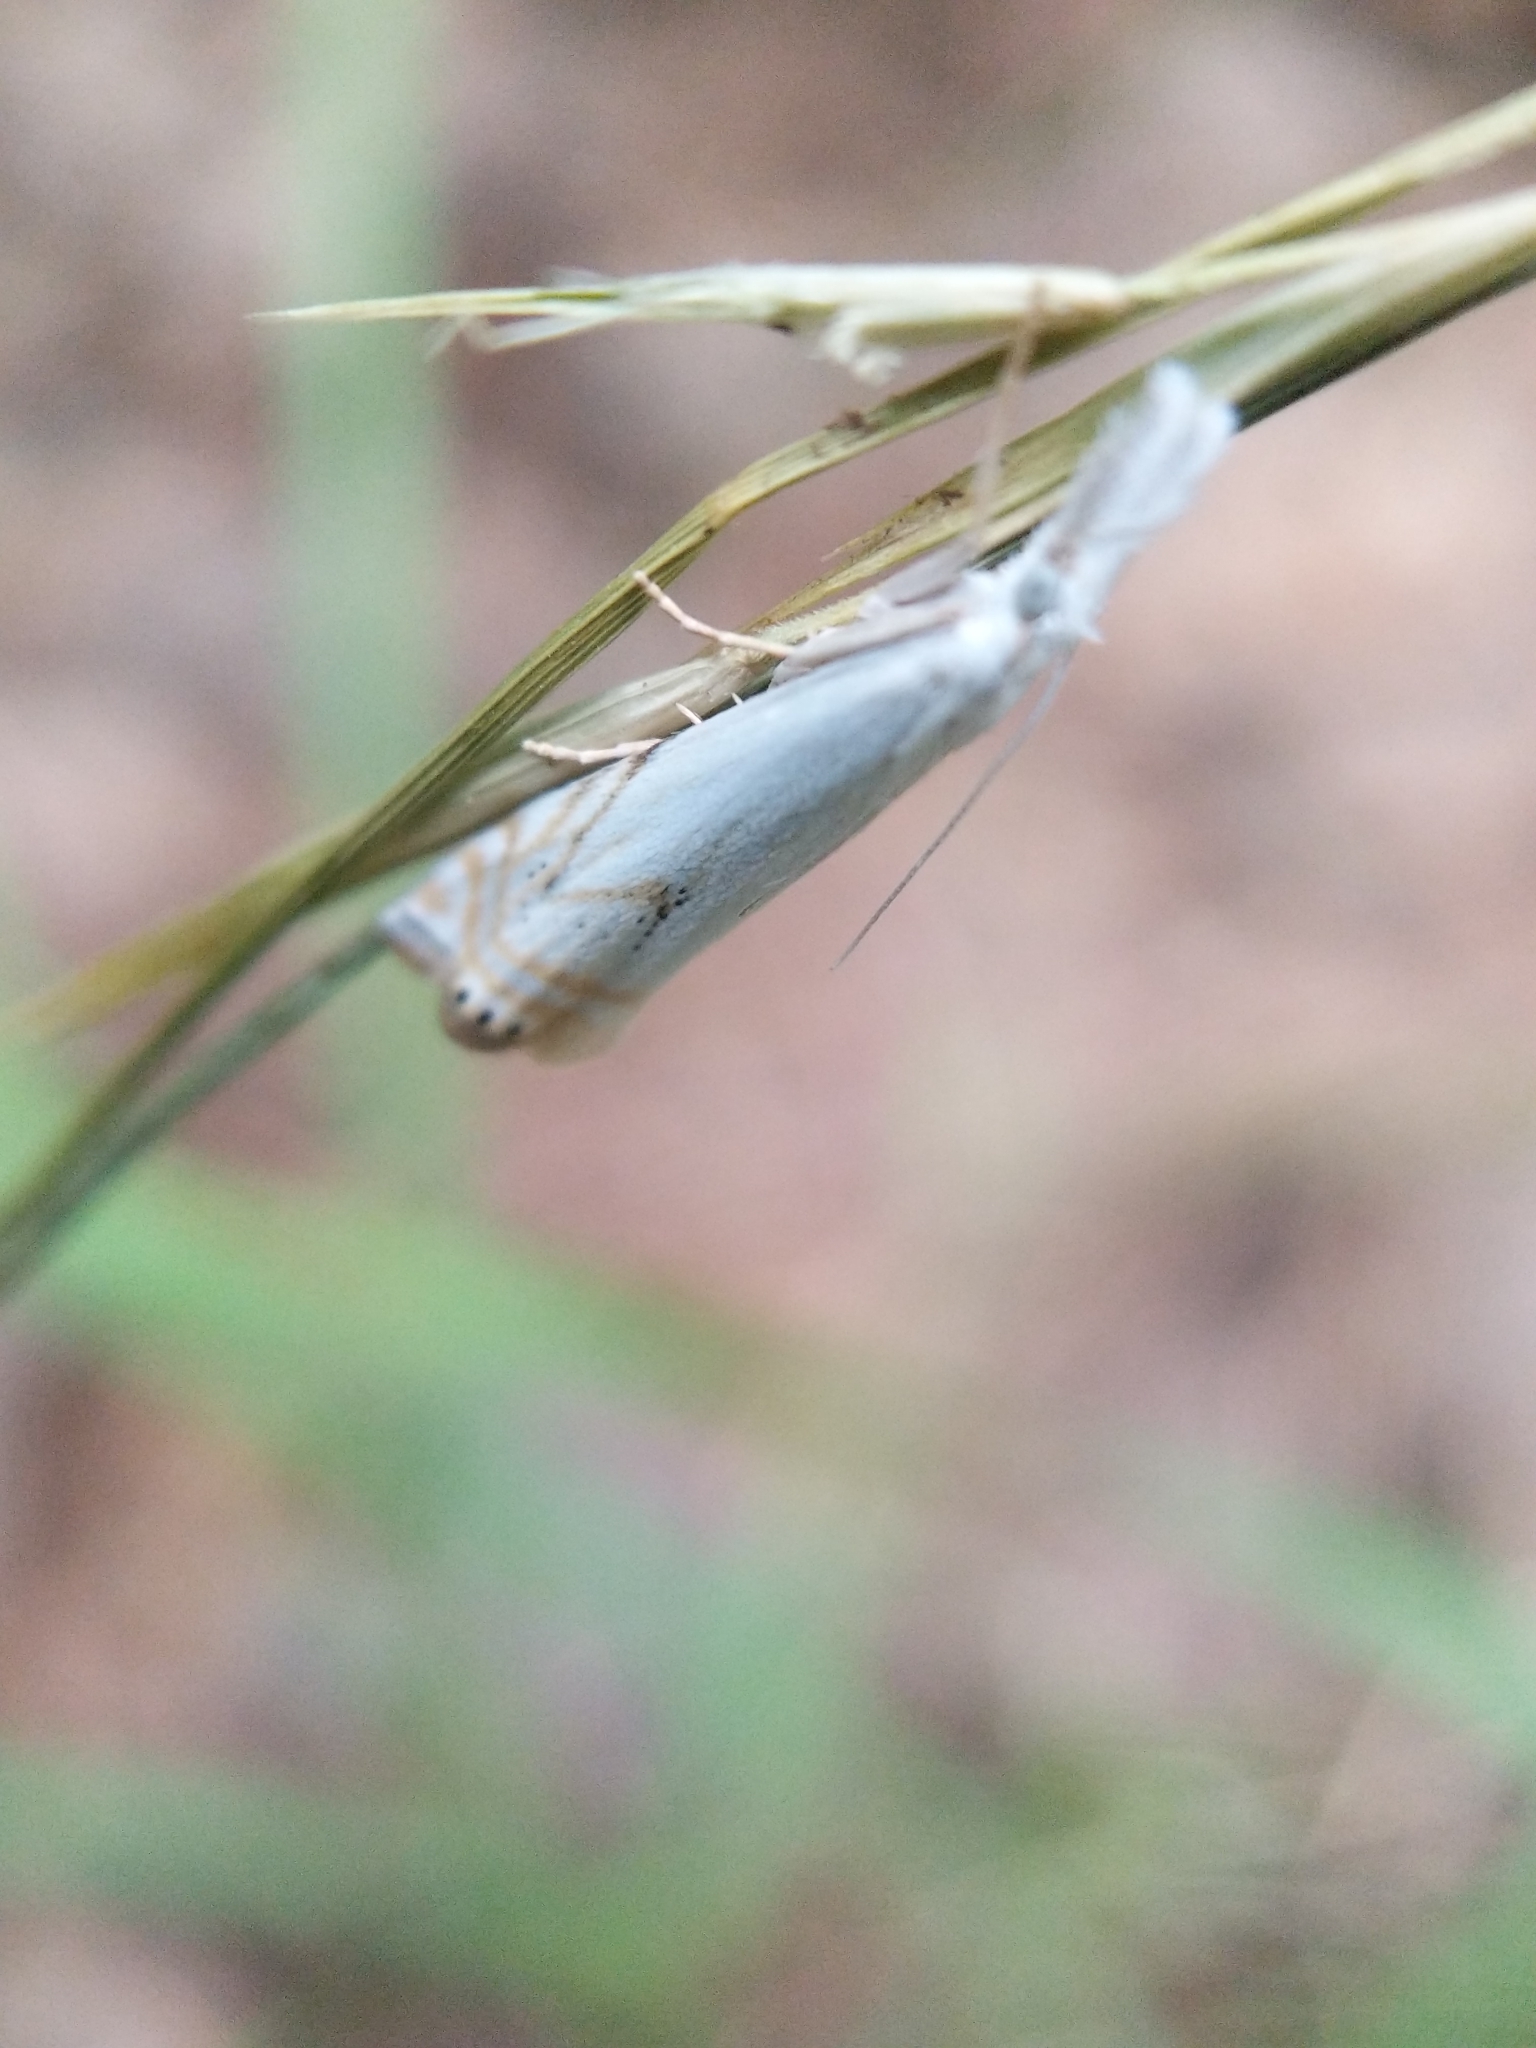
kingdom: Animalia
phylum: Arthropoda
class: Insecta
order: Lepidoptera
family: Crambidae
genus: Crambus
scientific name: Crambus albellus
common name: Small white grass-veneer
